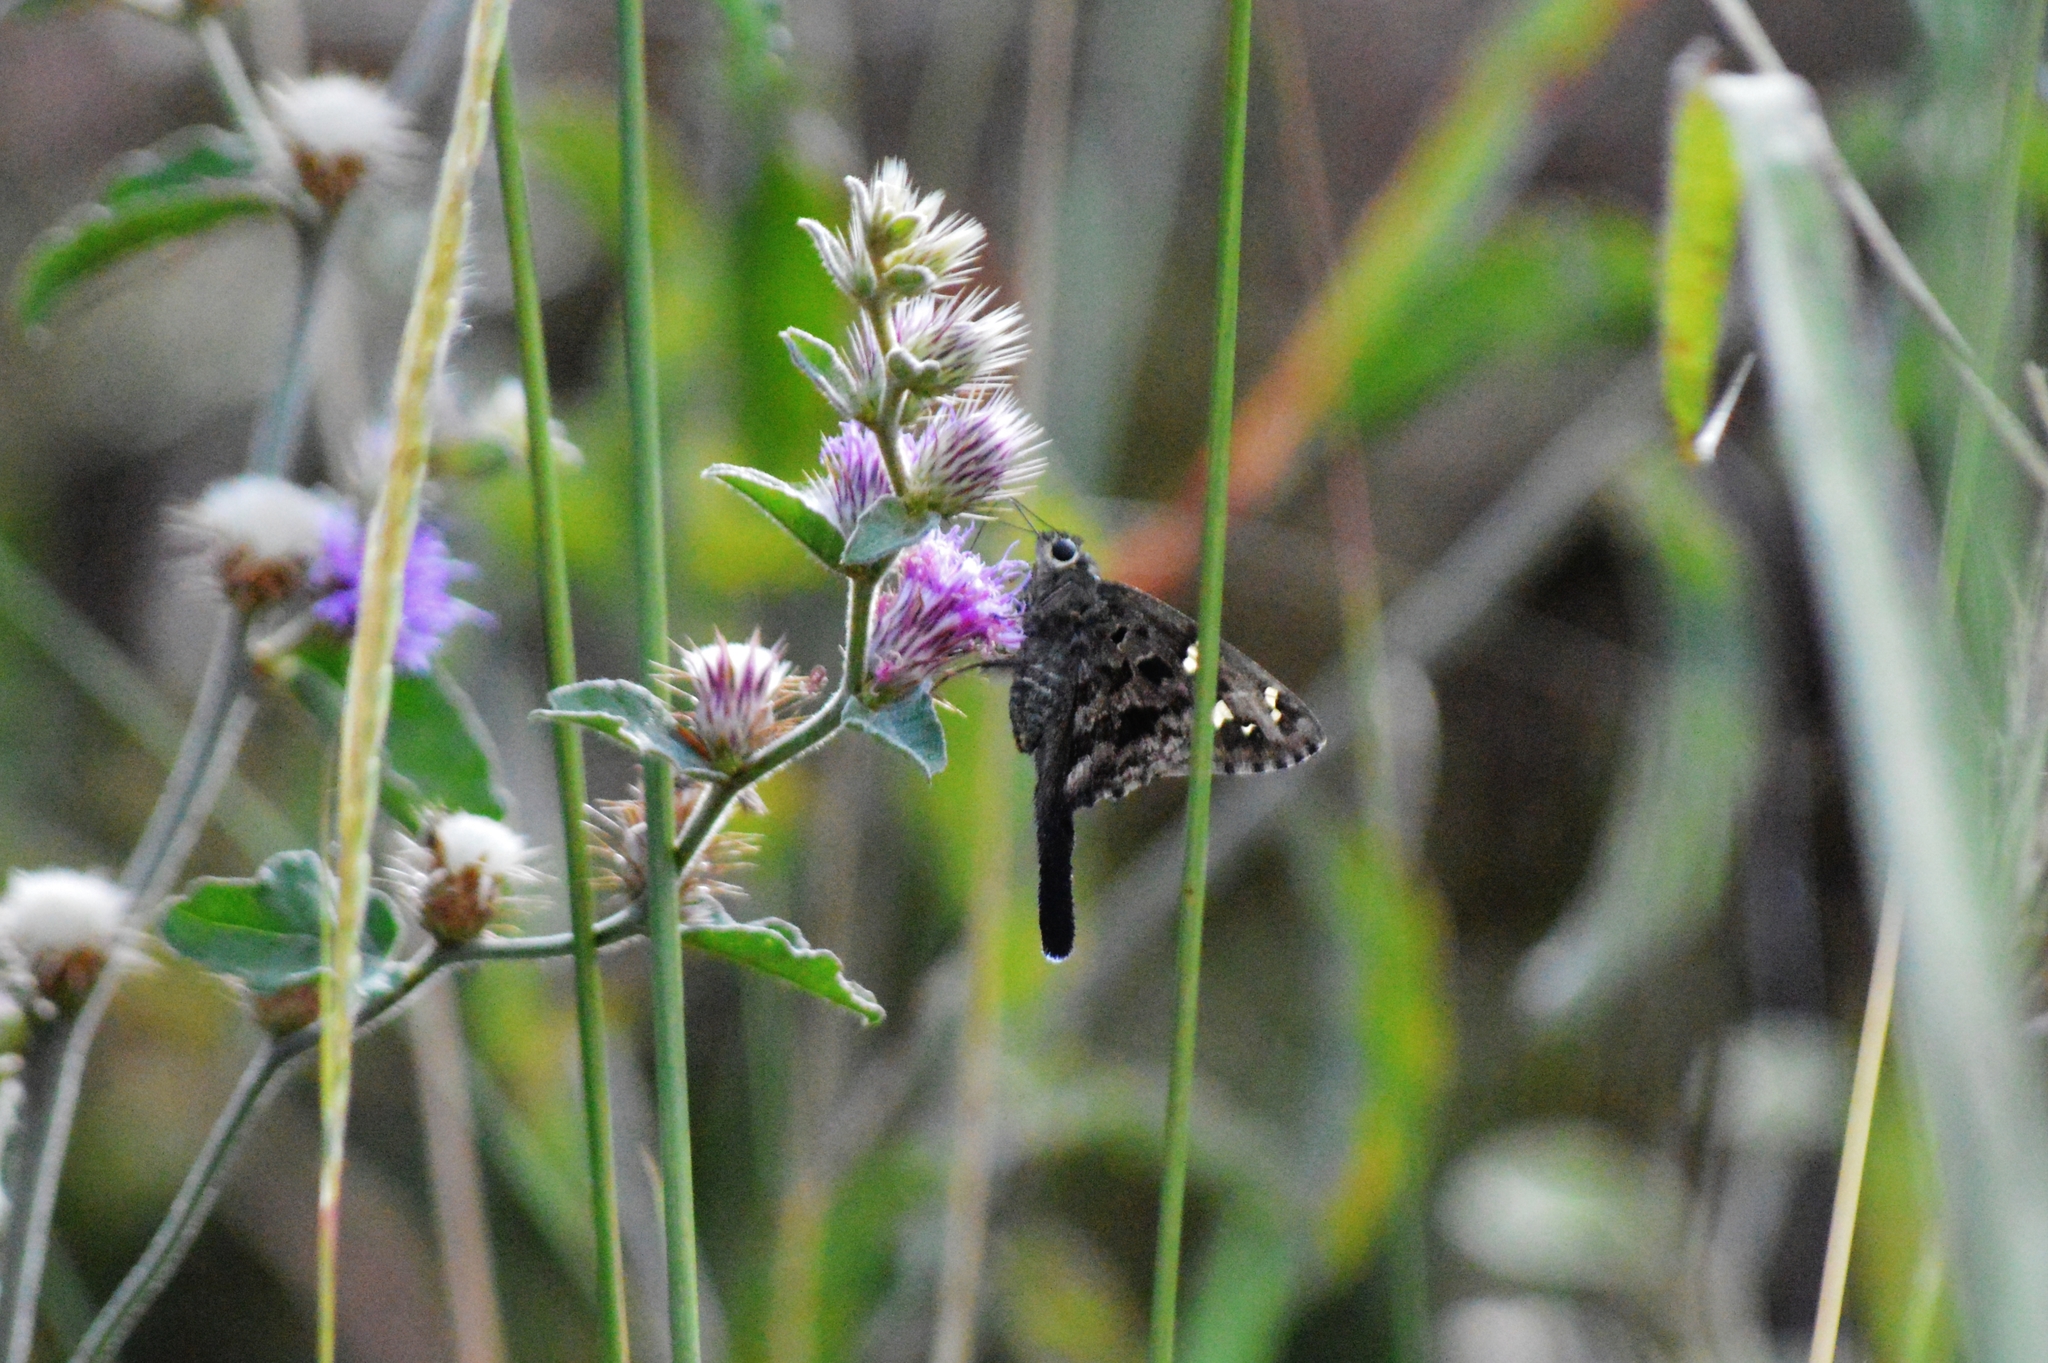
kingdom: Animalia
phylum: Arthropoda
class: Insecta
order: Lepidoptera
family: Hesperiidae
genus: Thorybes
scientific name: Thorybes
